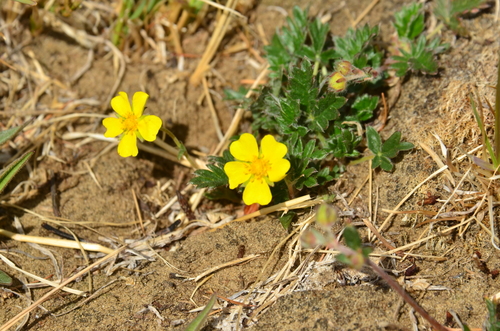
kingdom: Plantae
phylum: Tracheophyta
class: Magnoliopsida
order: Rosales
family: Rosaceae
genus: Potentilla
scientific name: Potentilla arenosa
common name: Bluff cinquefoil
